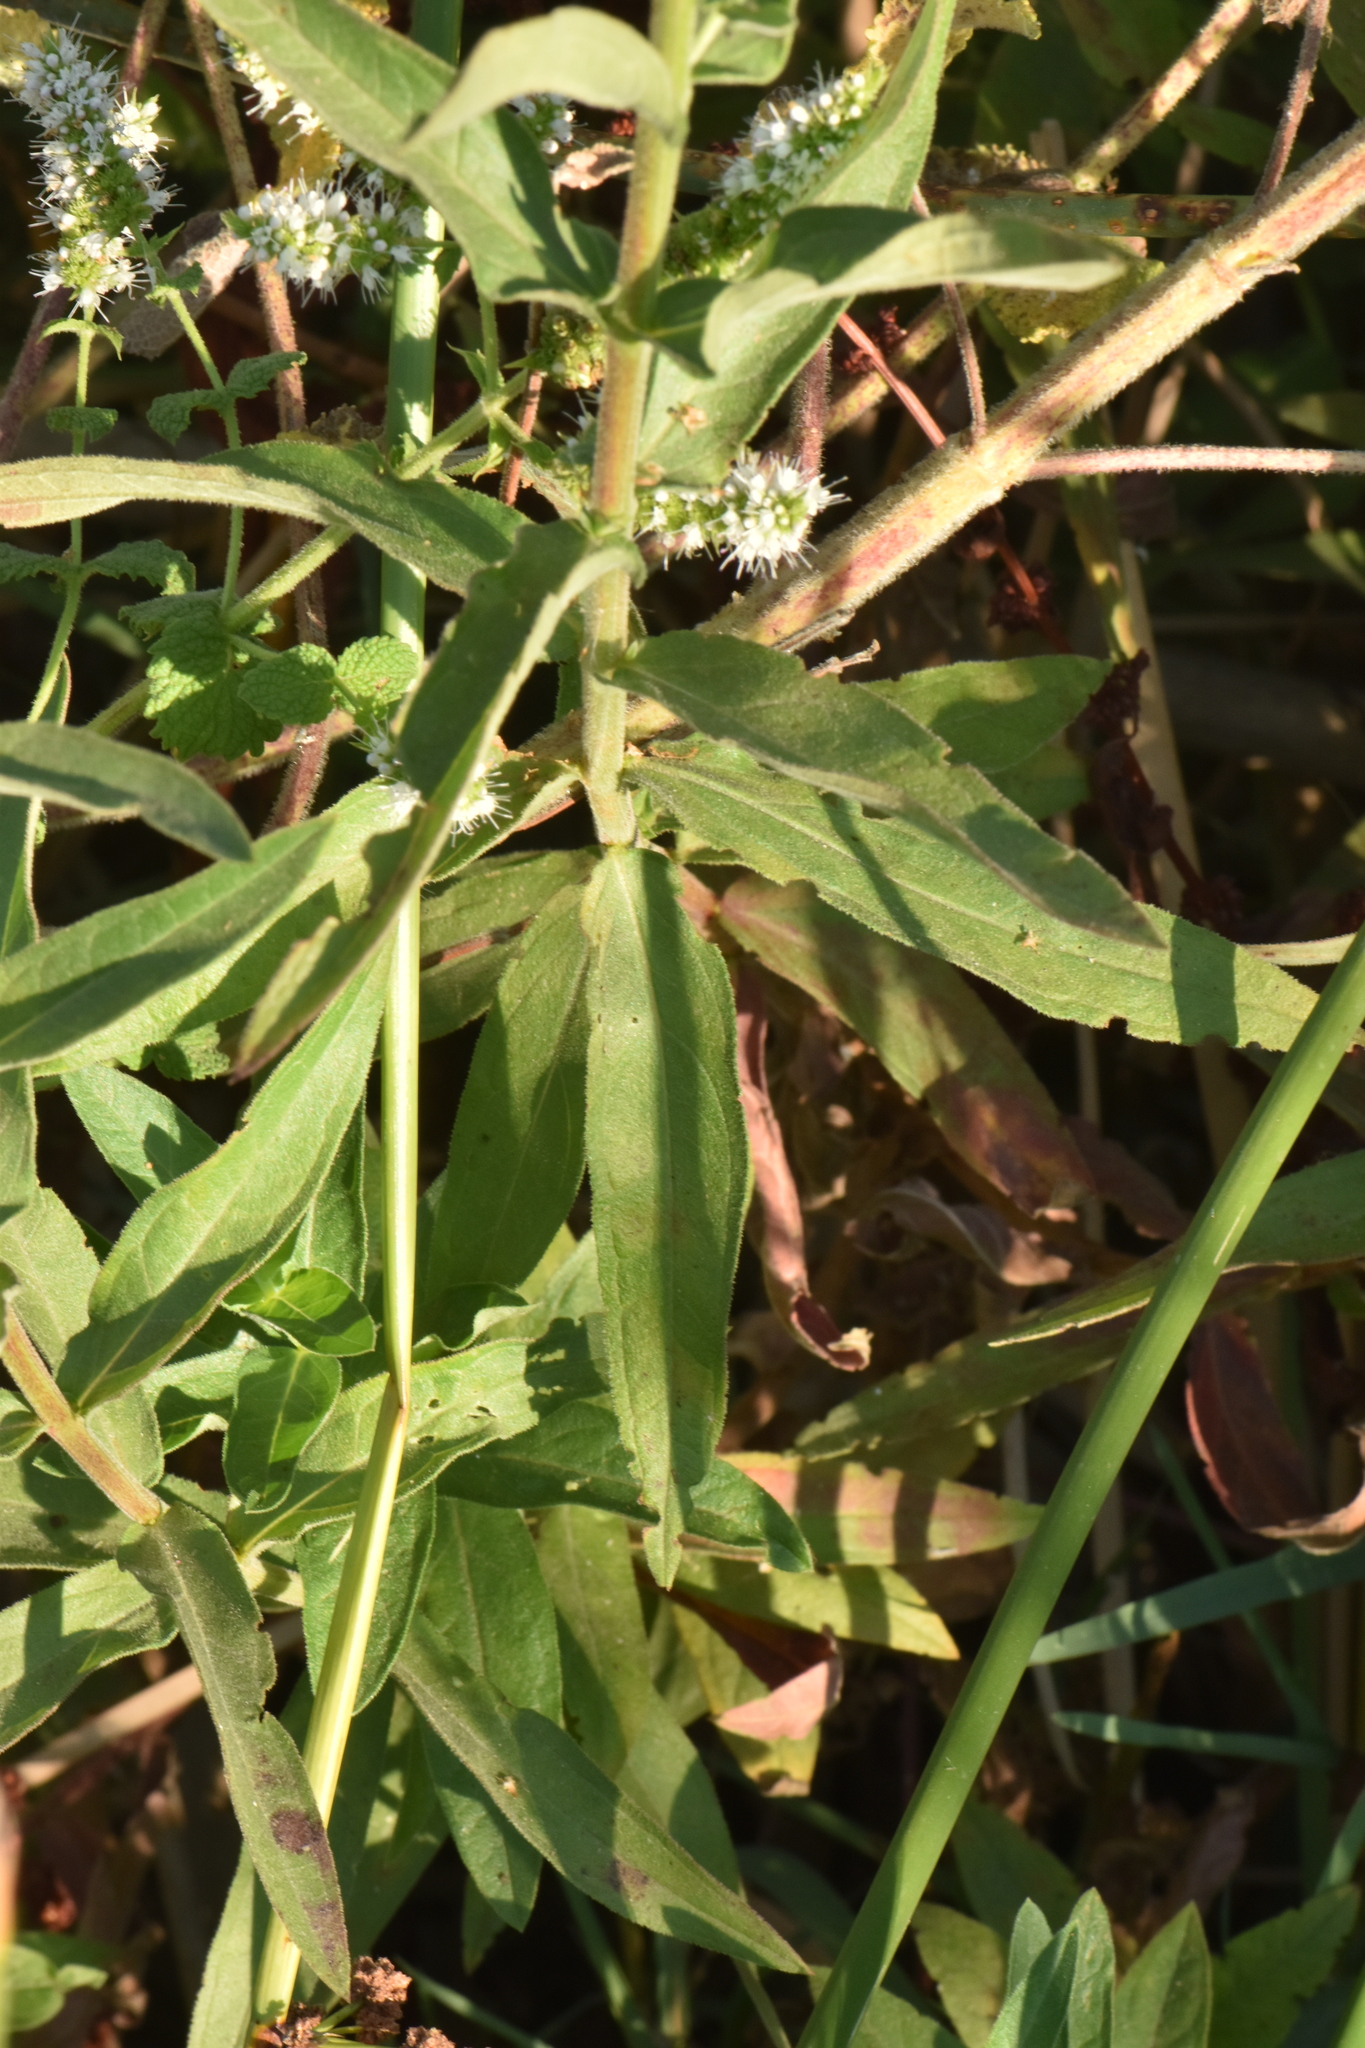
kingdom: Plantae
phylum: Tracheophyta
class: Magnoliopsida
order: Myrtales
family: Lythraceae
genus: Lythrum
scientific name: Lythrum salicaria
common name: Purple loosestrife
